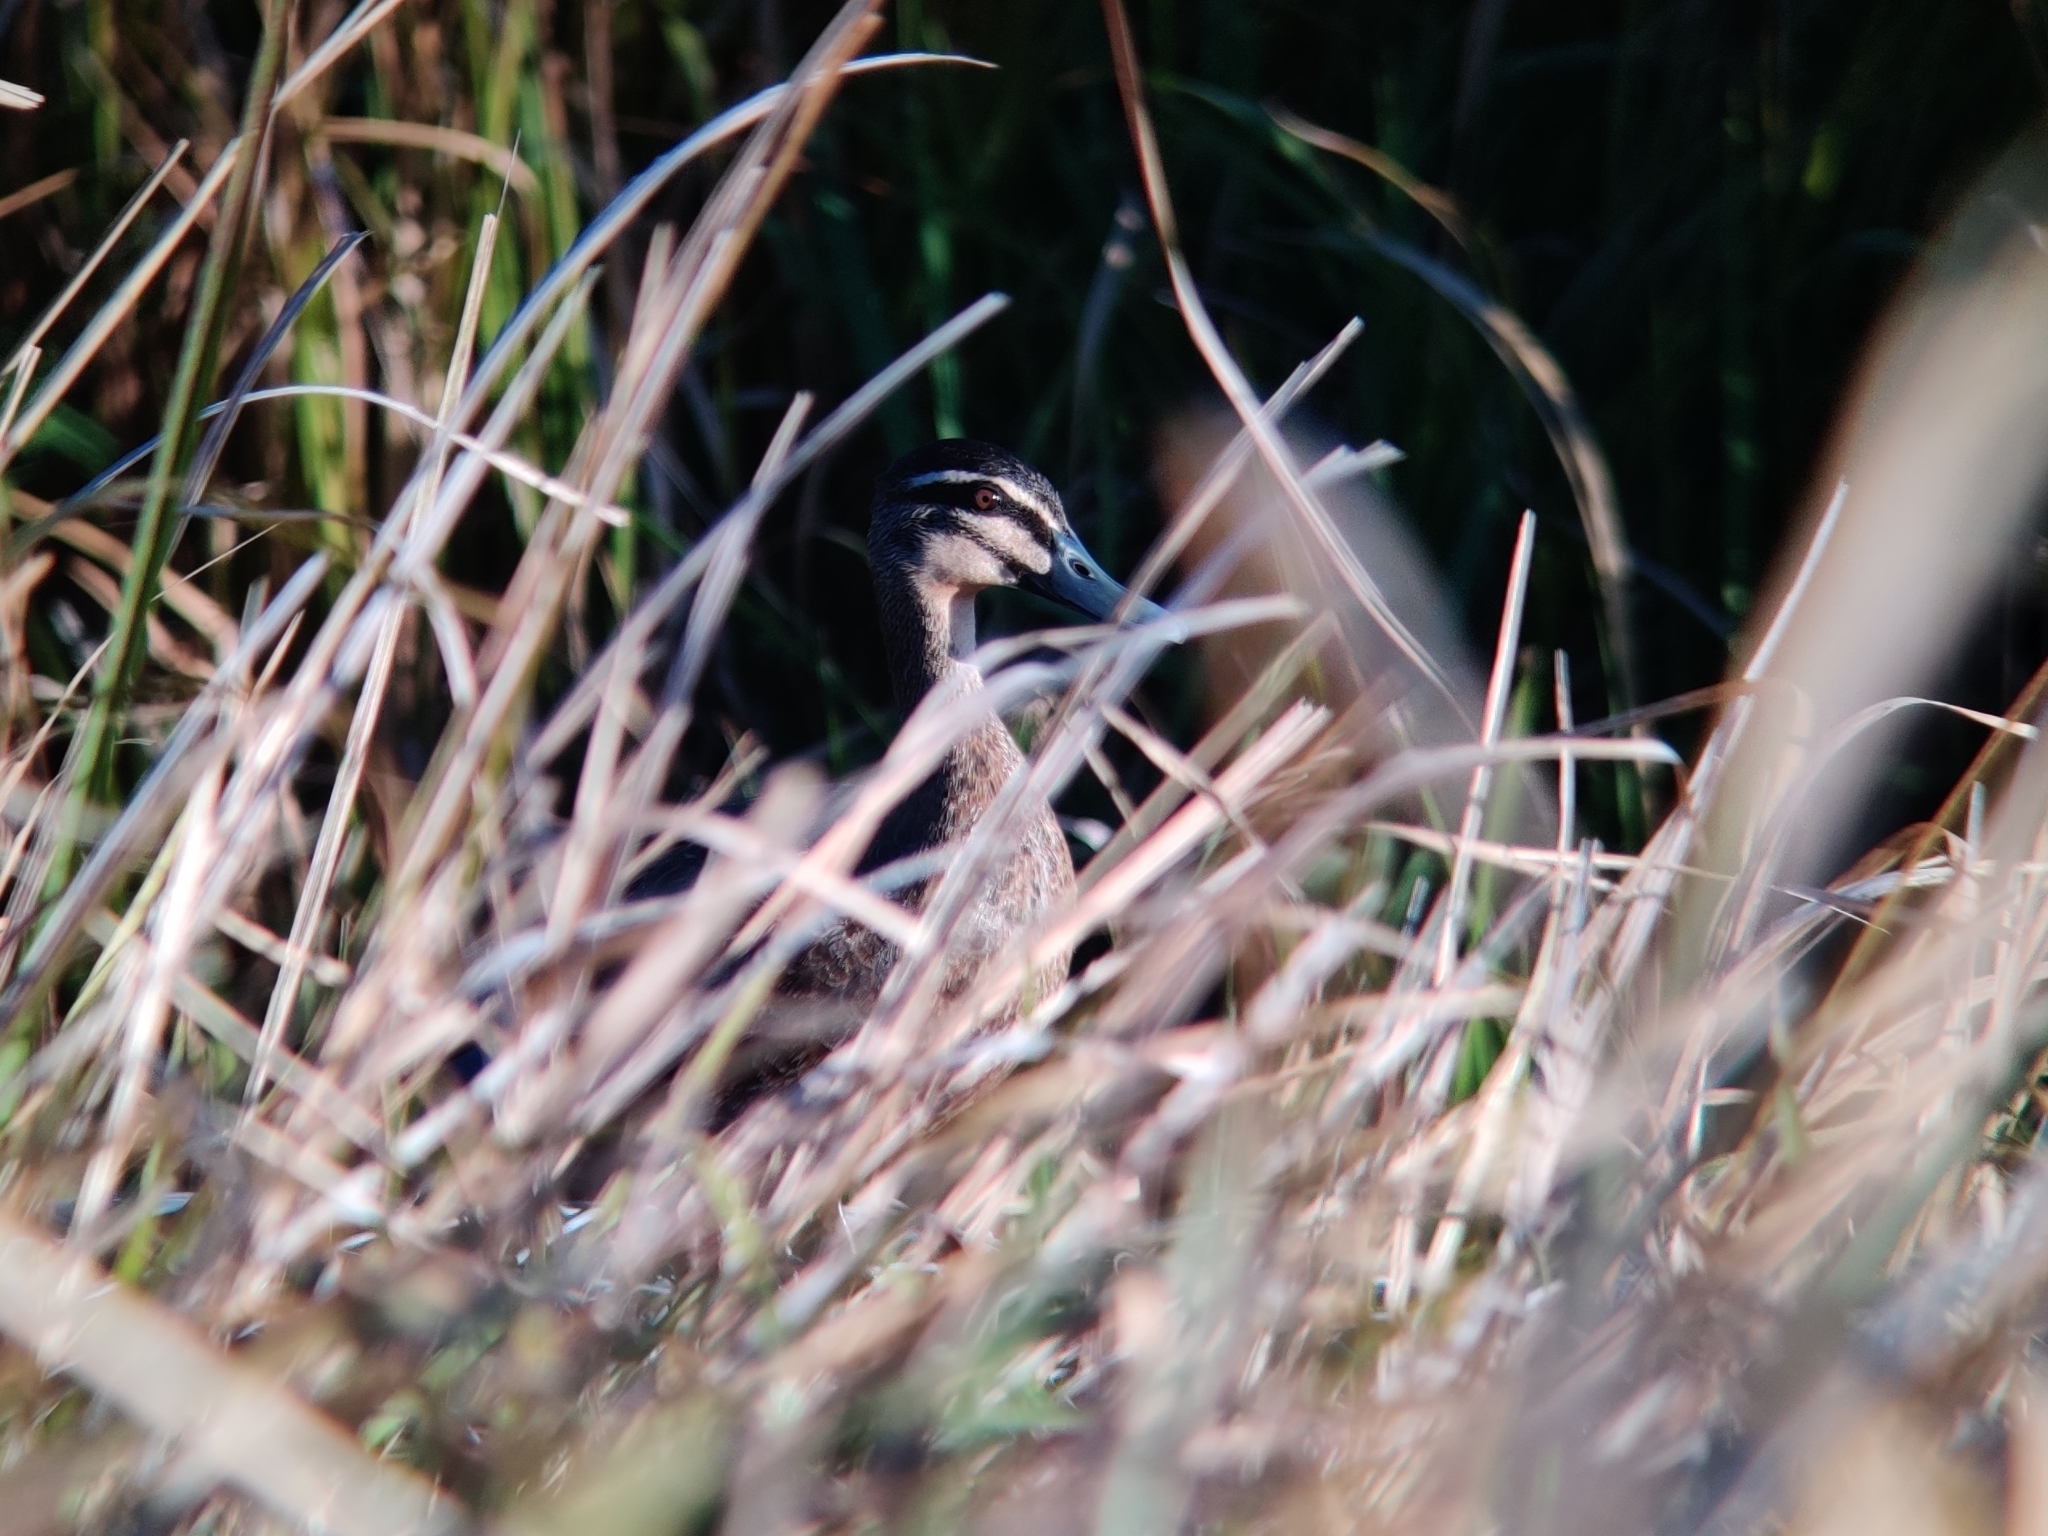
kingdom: Animalia
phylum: Chordata
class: Aves
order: Anseriformes
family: Anatidae
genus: Anas
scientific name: Anas superciliosa
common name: Pacific black duck
